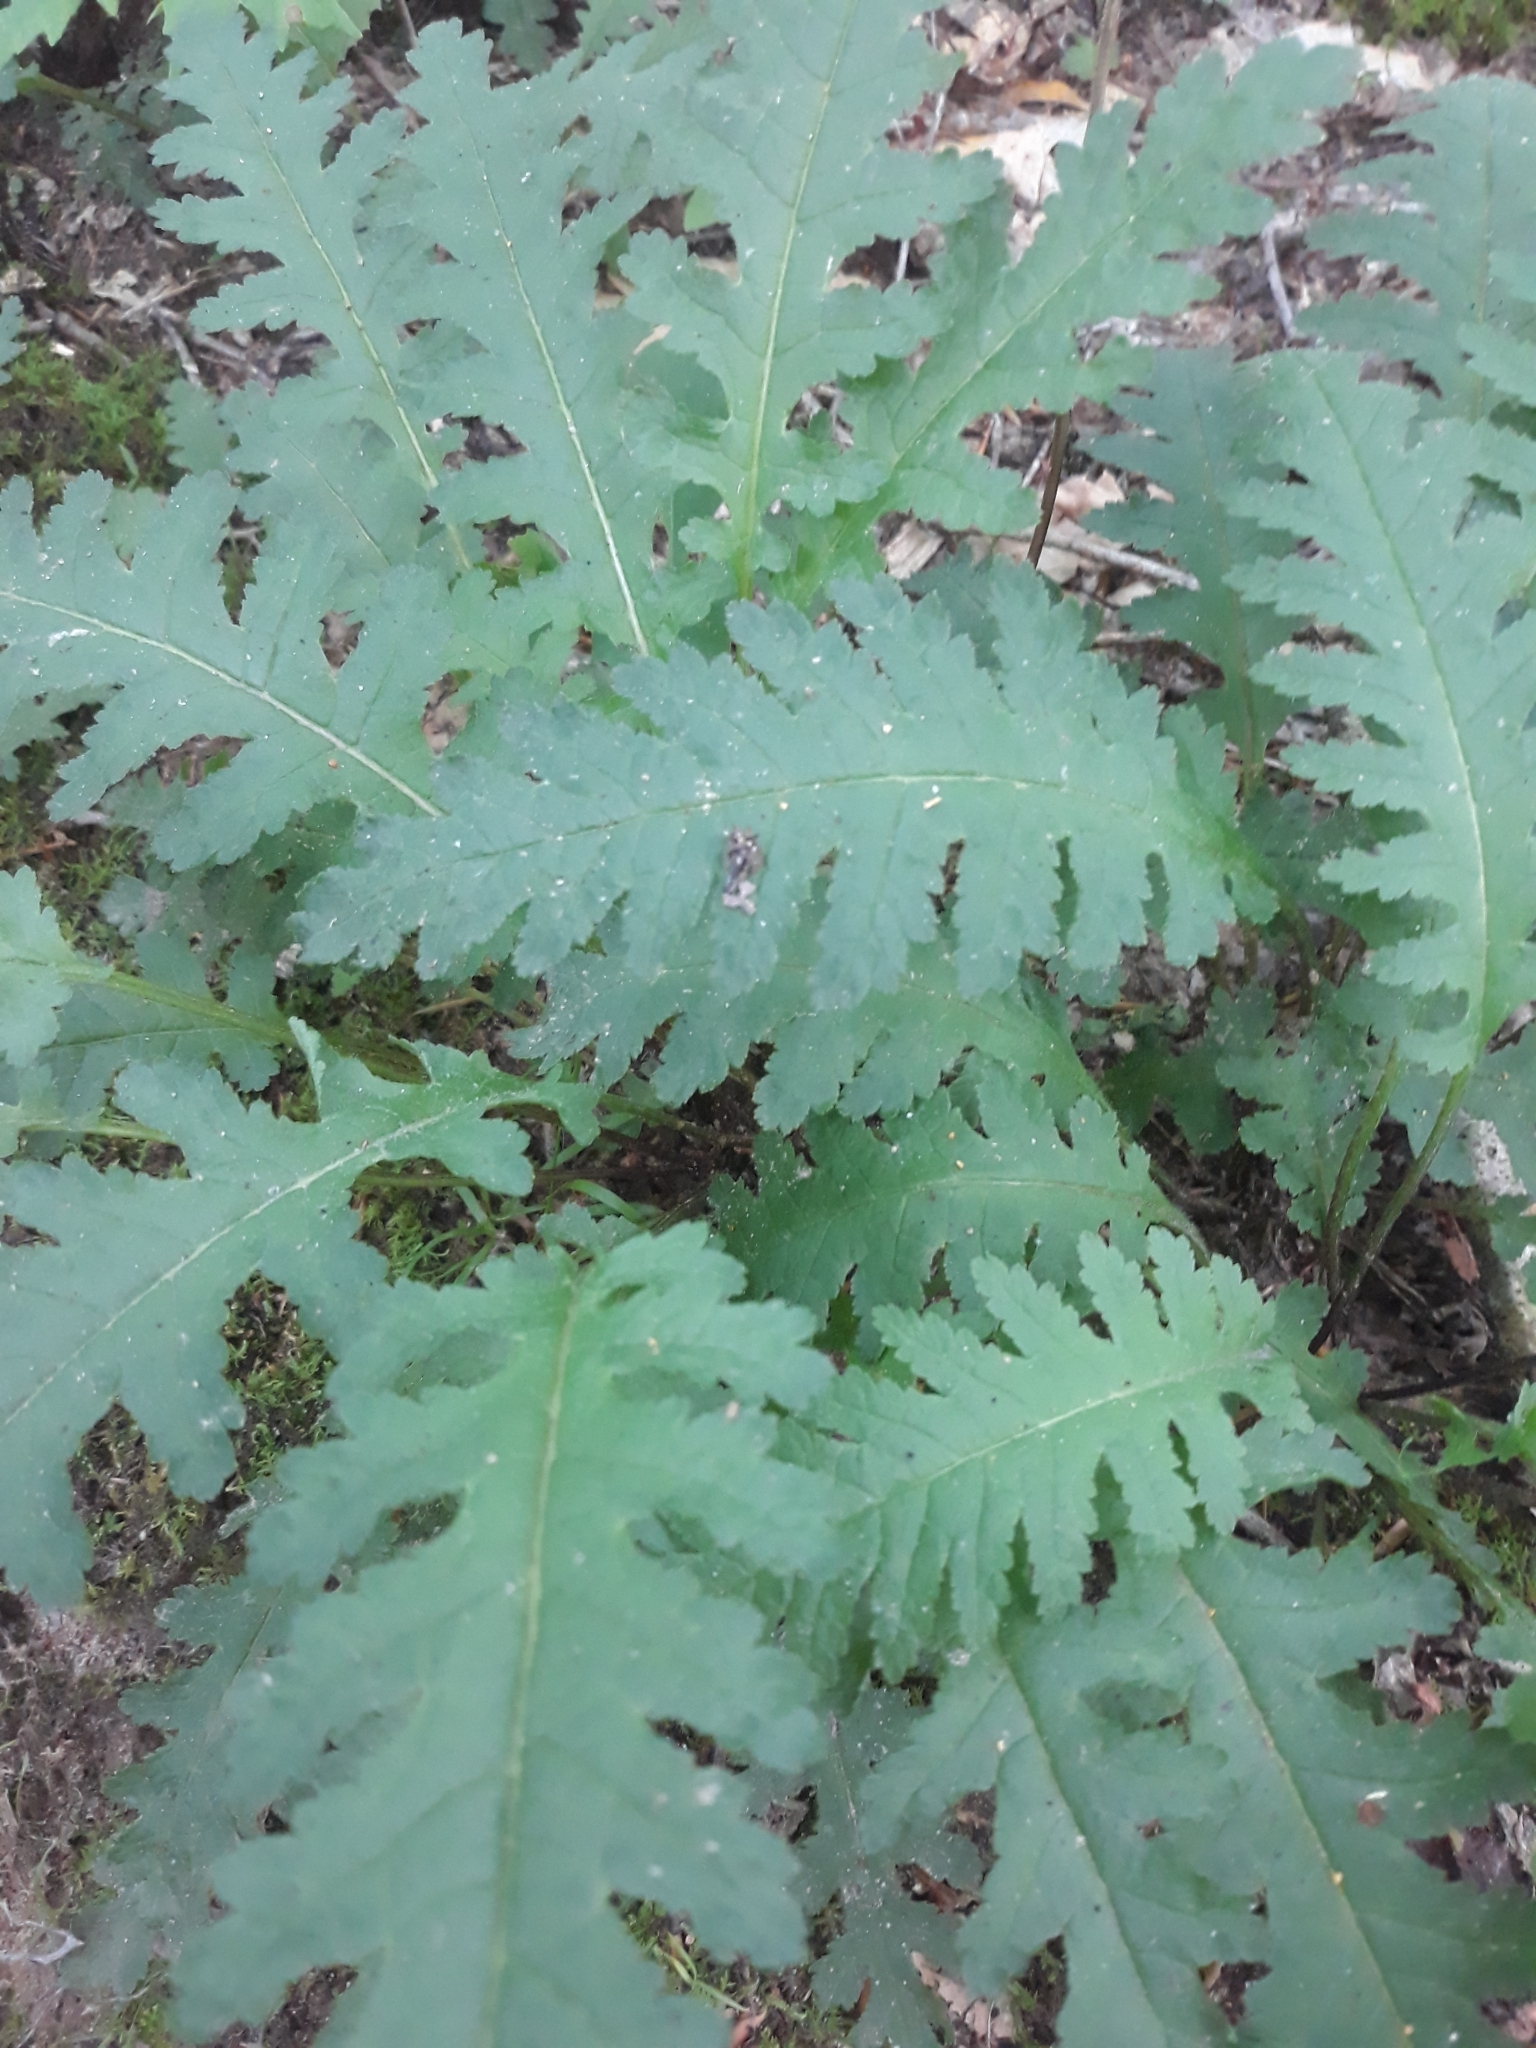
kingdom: Plantae
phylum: Tracheophyta
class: Magnoliopsida
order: Lamiales
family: Orobanchaceae
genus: Pedicularis
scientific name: Pedicularis canadensis
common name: Early lousewort
